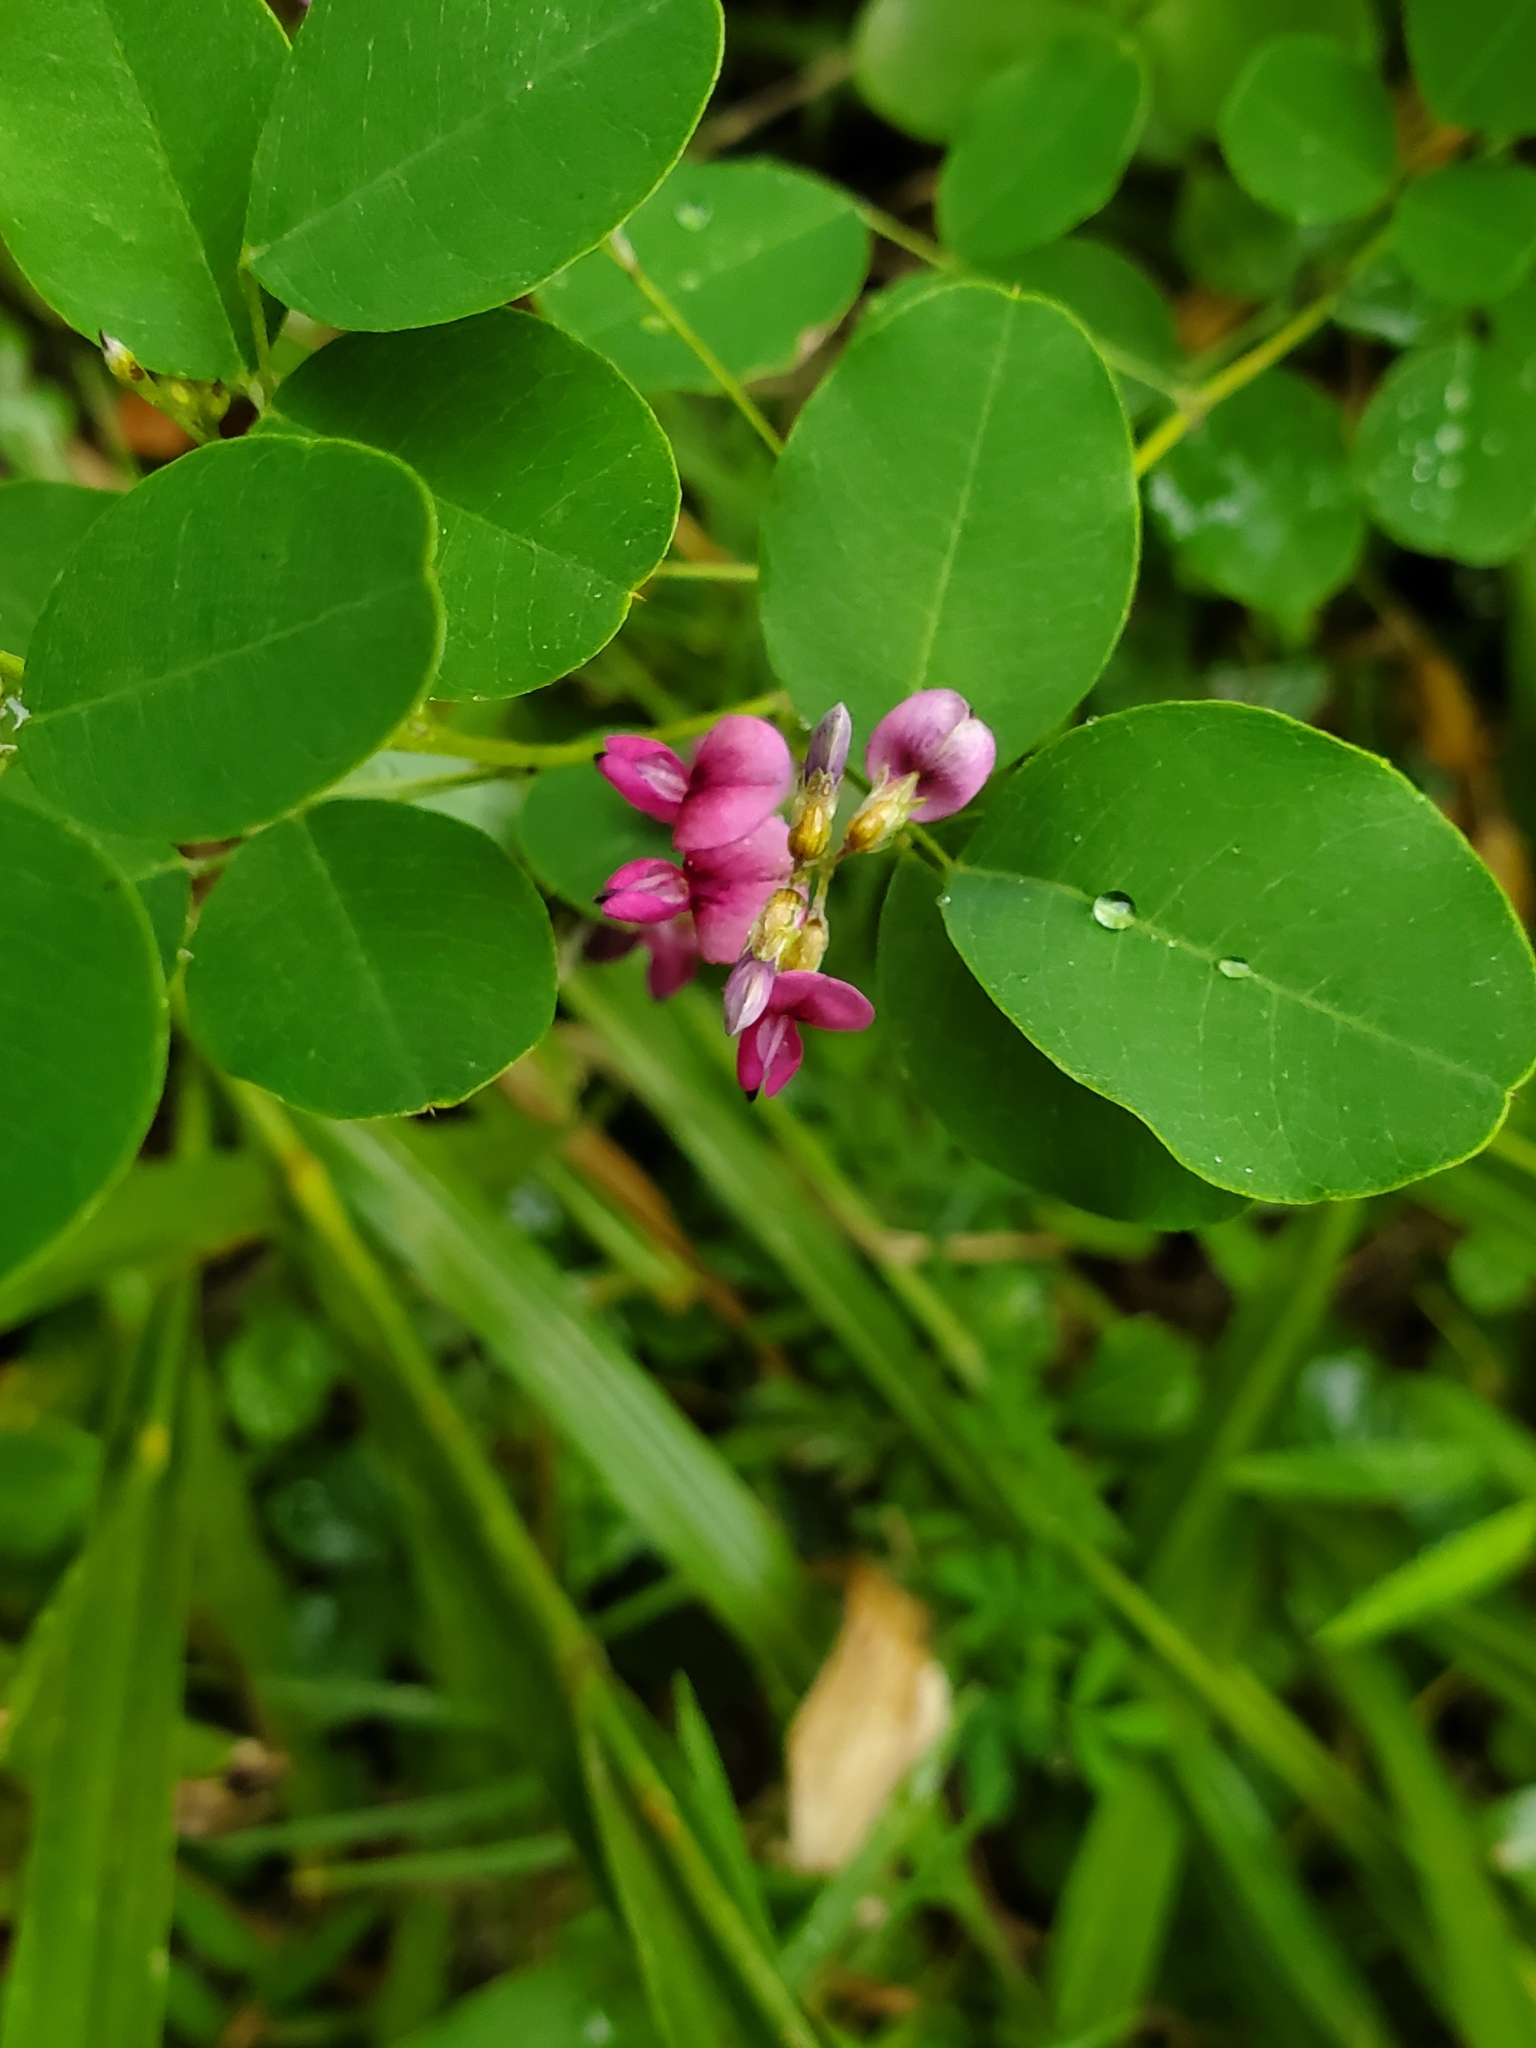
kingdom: Plantae
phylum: Tracheophyta
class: Magnoliopsida
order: Fabales
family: Fabaceae
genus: Lespedeza
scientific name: Lespedeza bicolor
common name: Shrub lespedeza
